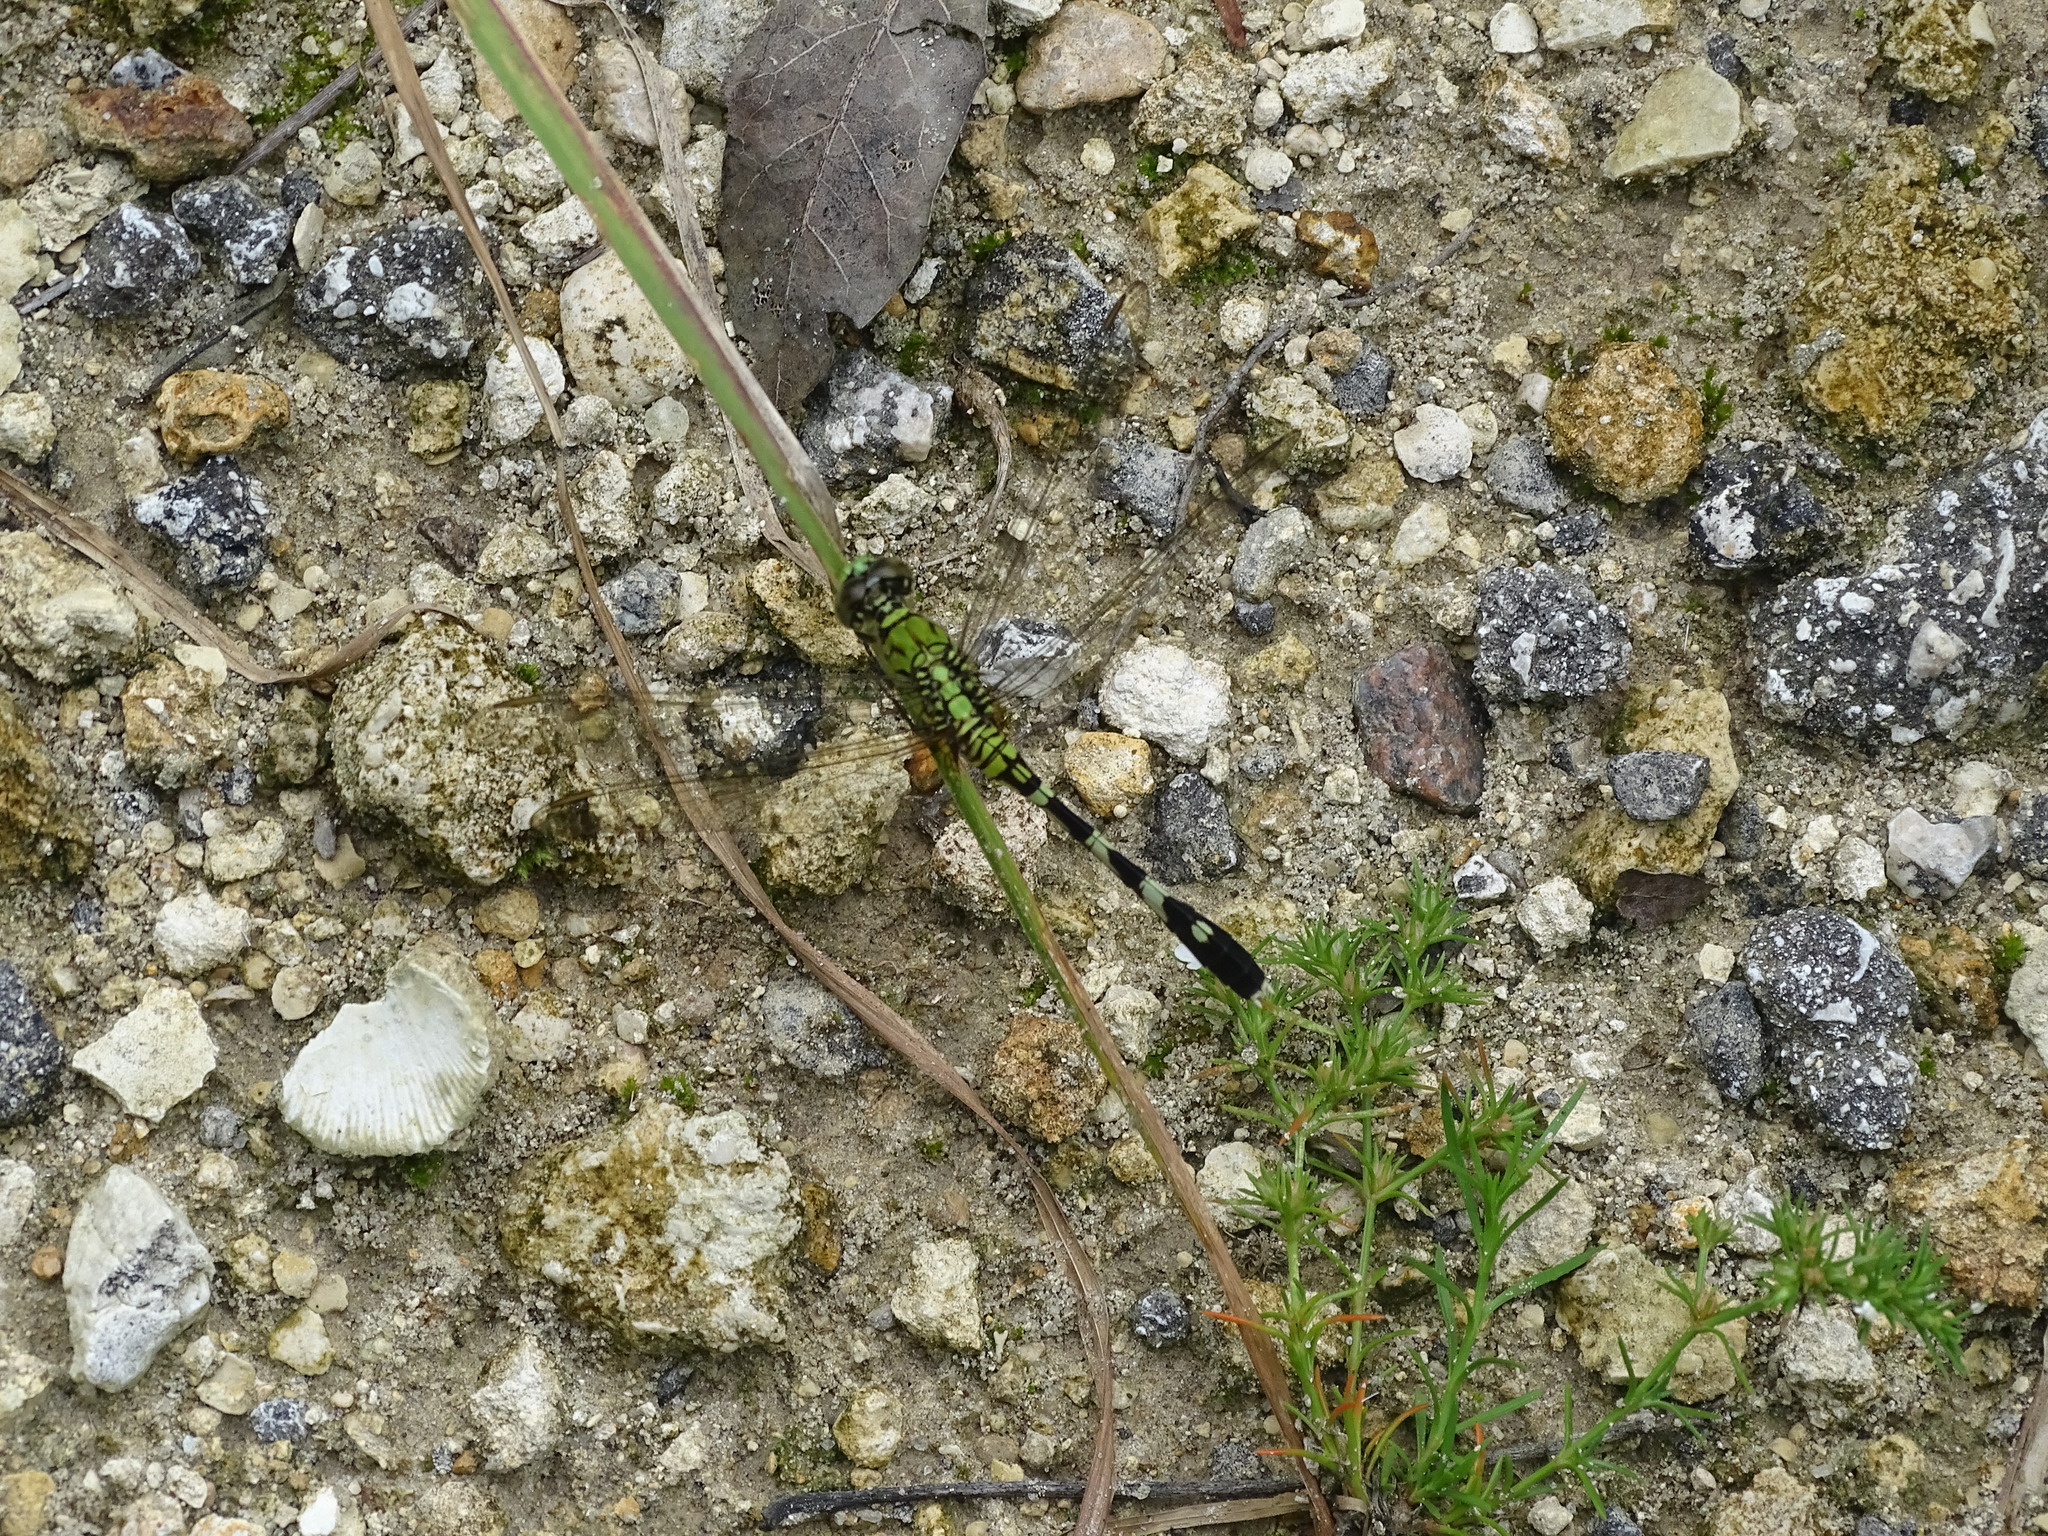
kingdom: Animalia
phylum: Arthropoda
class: Insecta
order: Odonata
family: Libellulidae
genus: Erythemis
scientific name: Erythemis simplicicollis
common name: Eastern pondhawk
